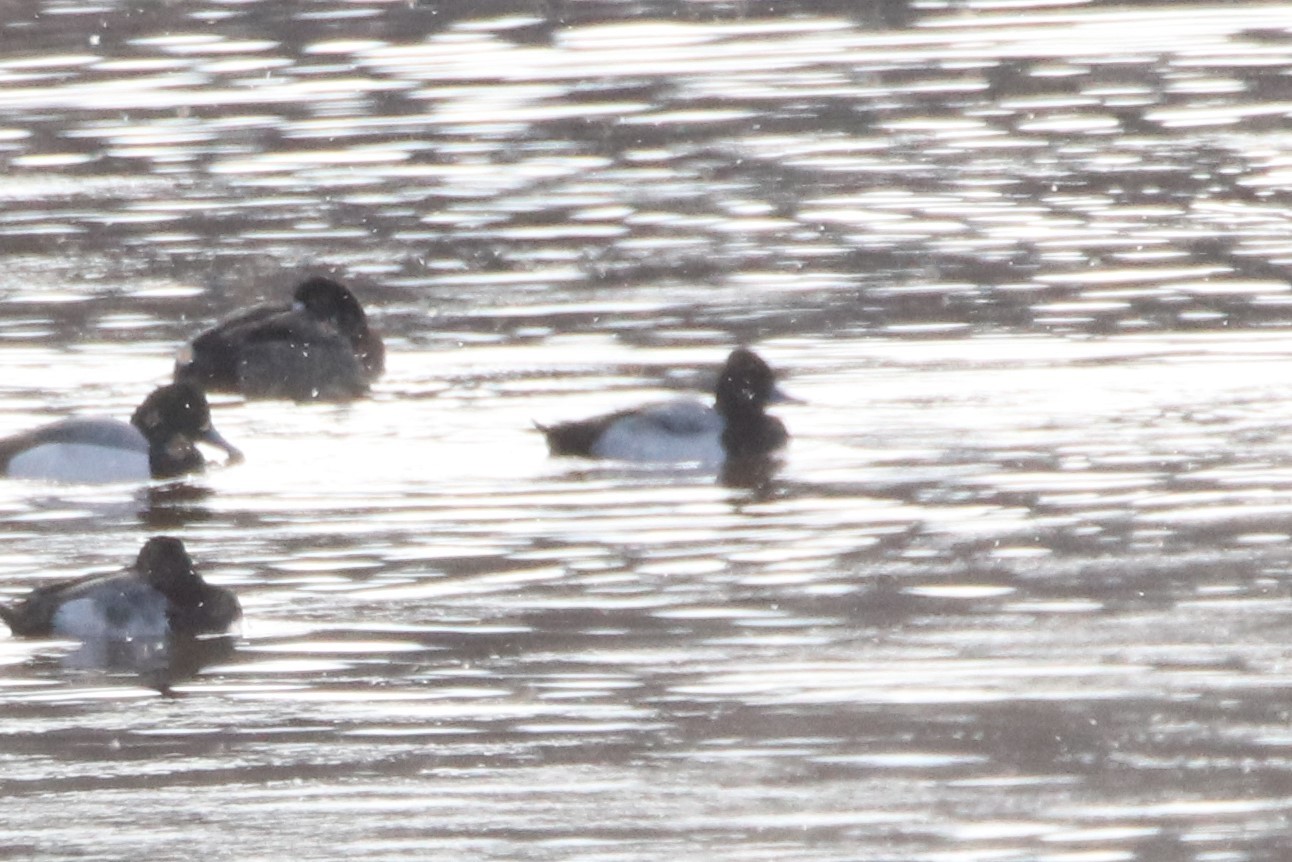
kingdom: Animalia
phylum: Chordata
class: Aves
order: Anseriformes
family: Anatidae
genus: Aythya
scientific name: Aythya affinis
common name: Lesser scaup
